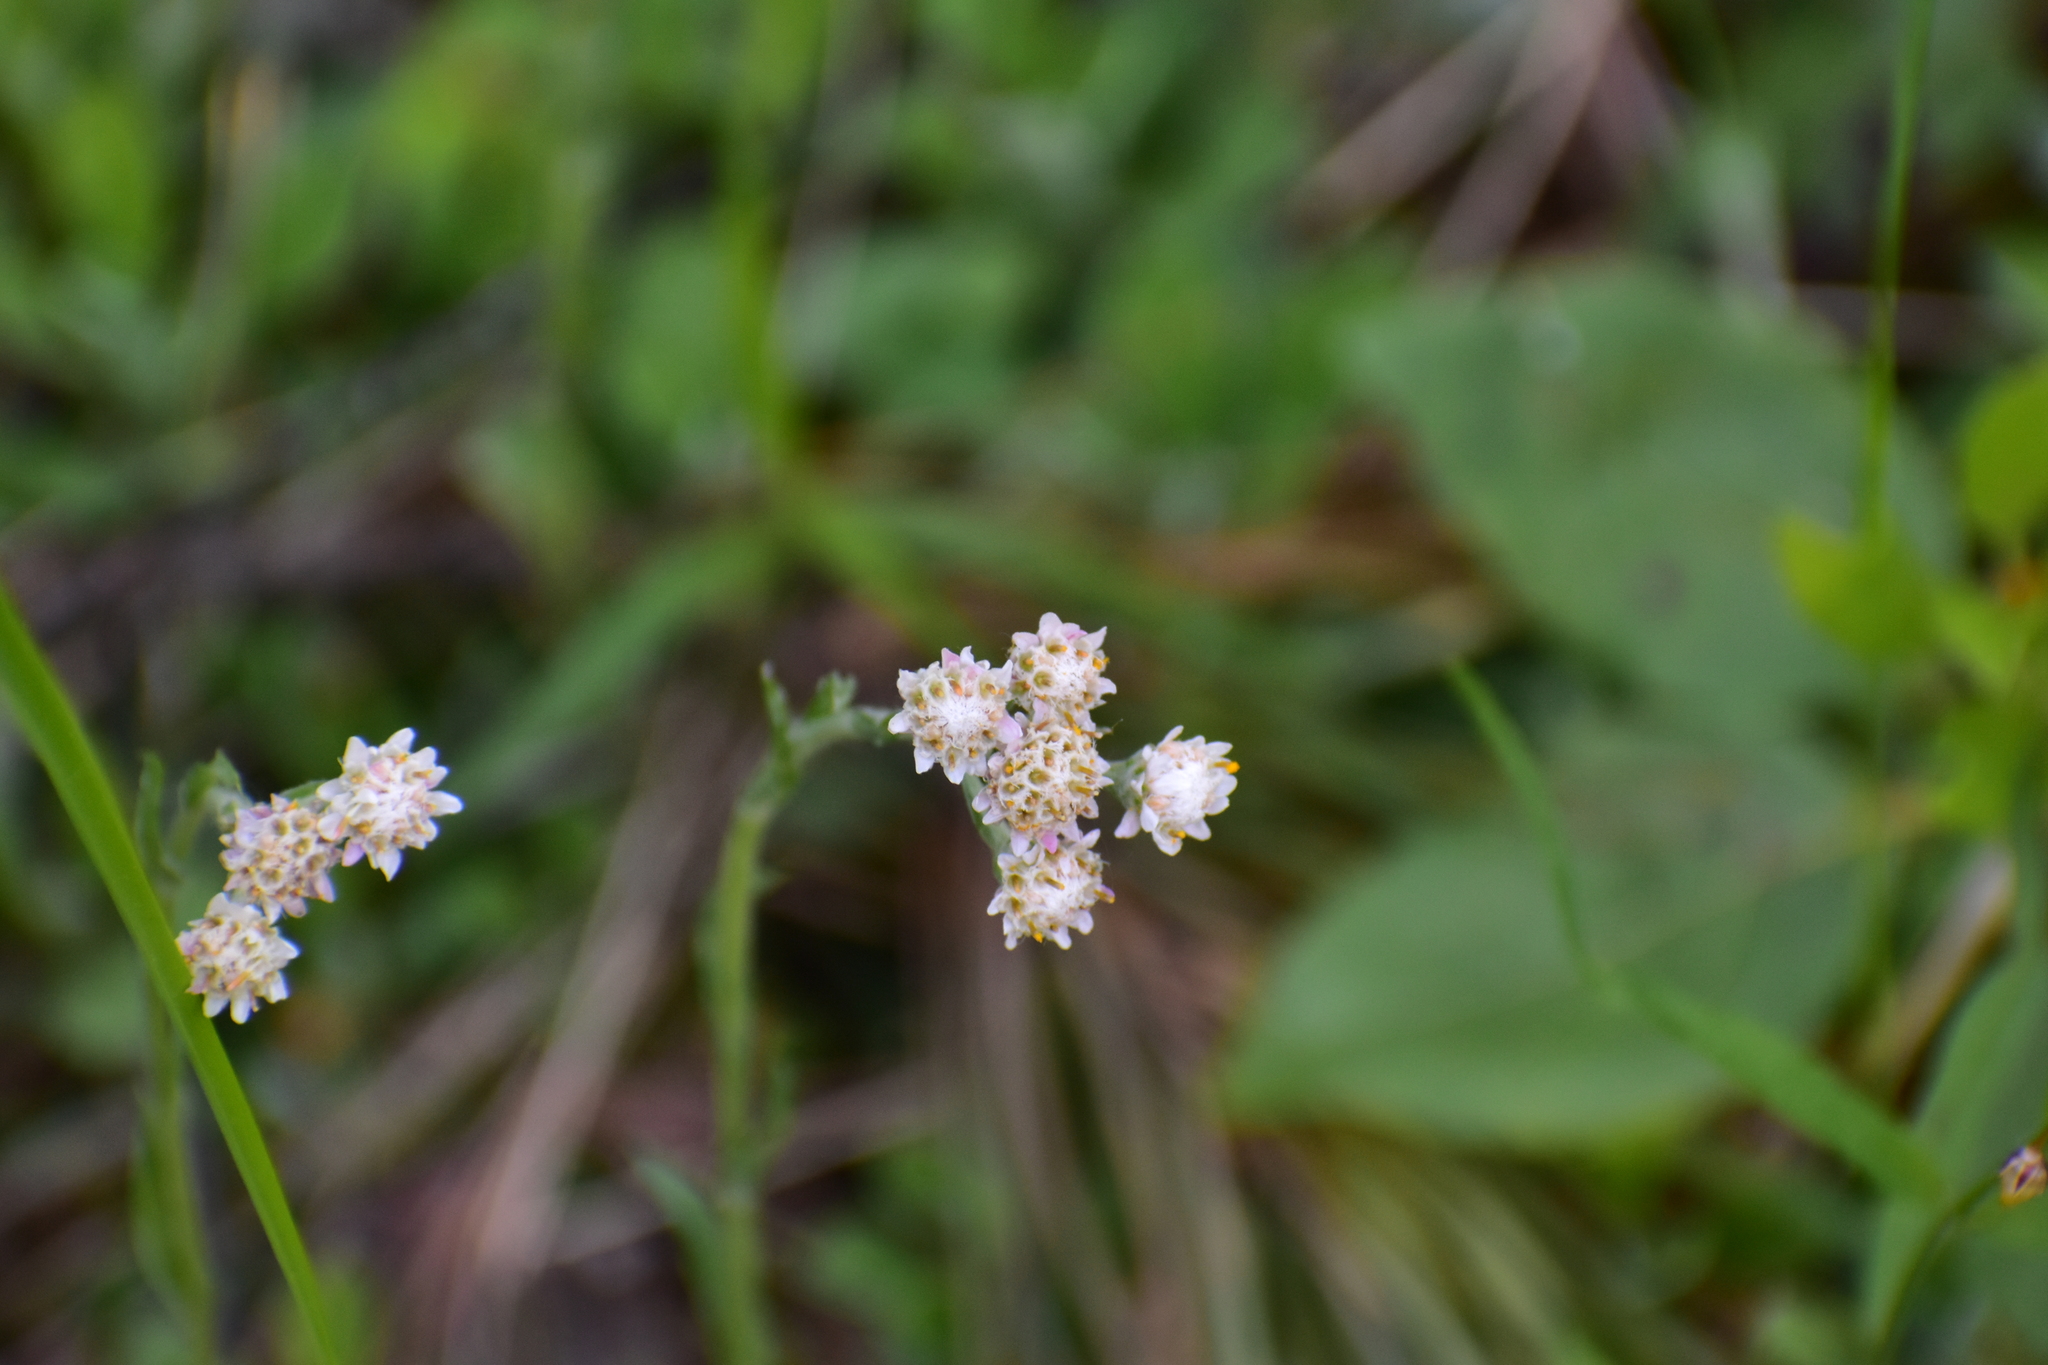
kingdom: Plantae
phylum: Tracheophyta
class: Magnoliopsida
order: Asterales
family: Asteraceae
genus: Antennaria
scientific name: Antennaria dioica
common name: Mountain everlasting
